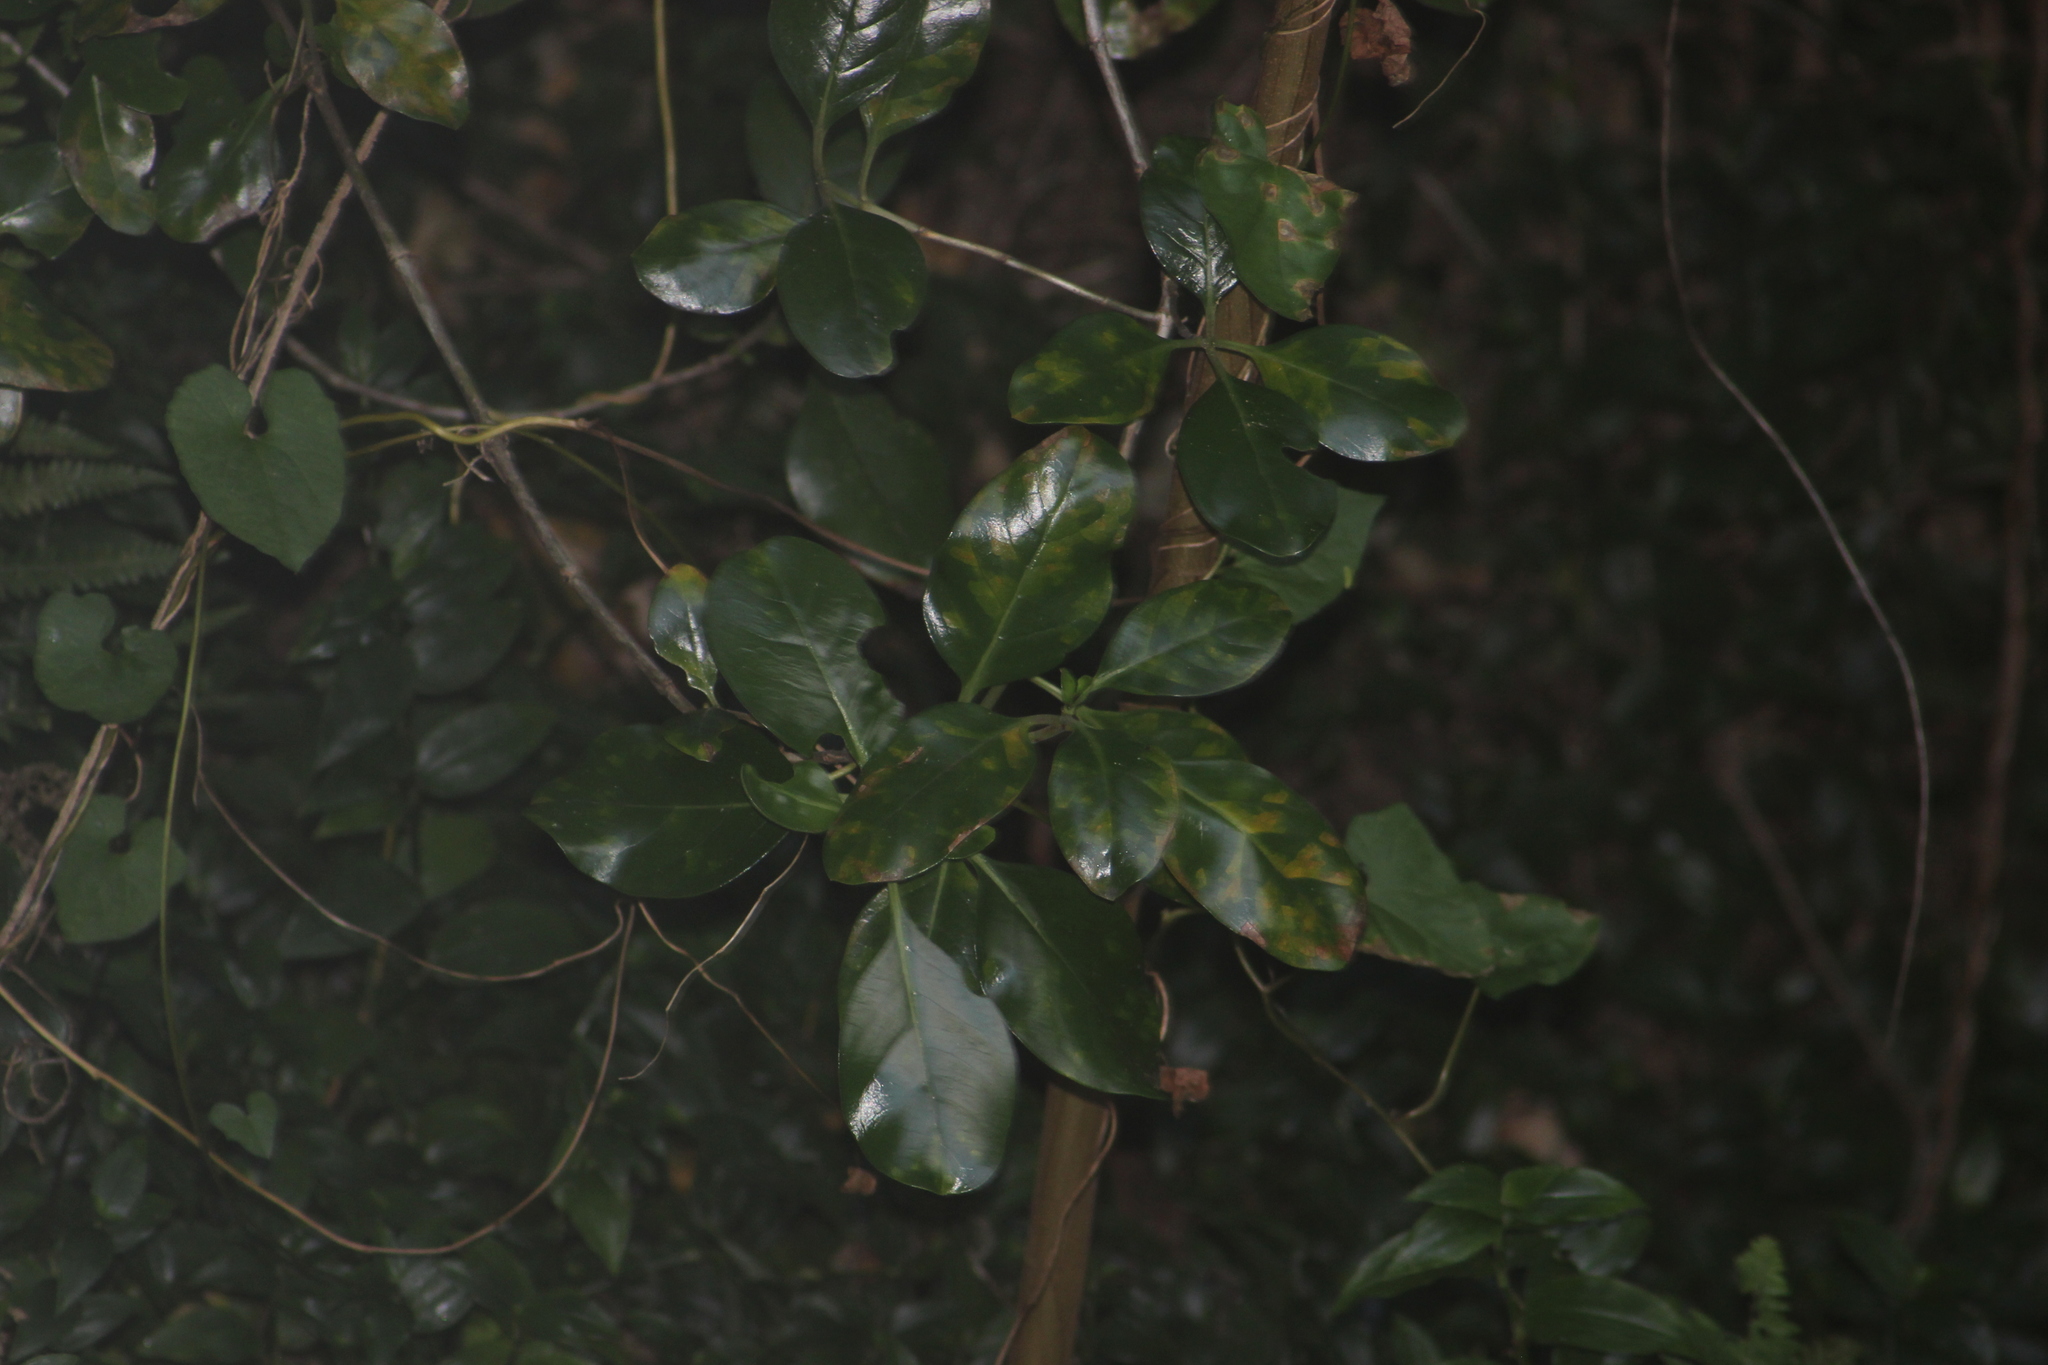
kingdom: Plantae
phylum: Tracheophyta
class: Magnoliopsida
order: Gentianales
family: Rubiaceae
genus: Coprosma
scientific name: Coprosma repens
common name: Tree bedstraw
